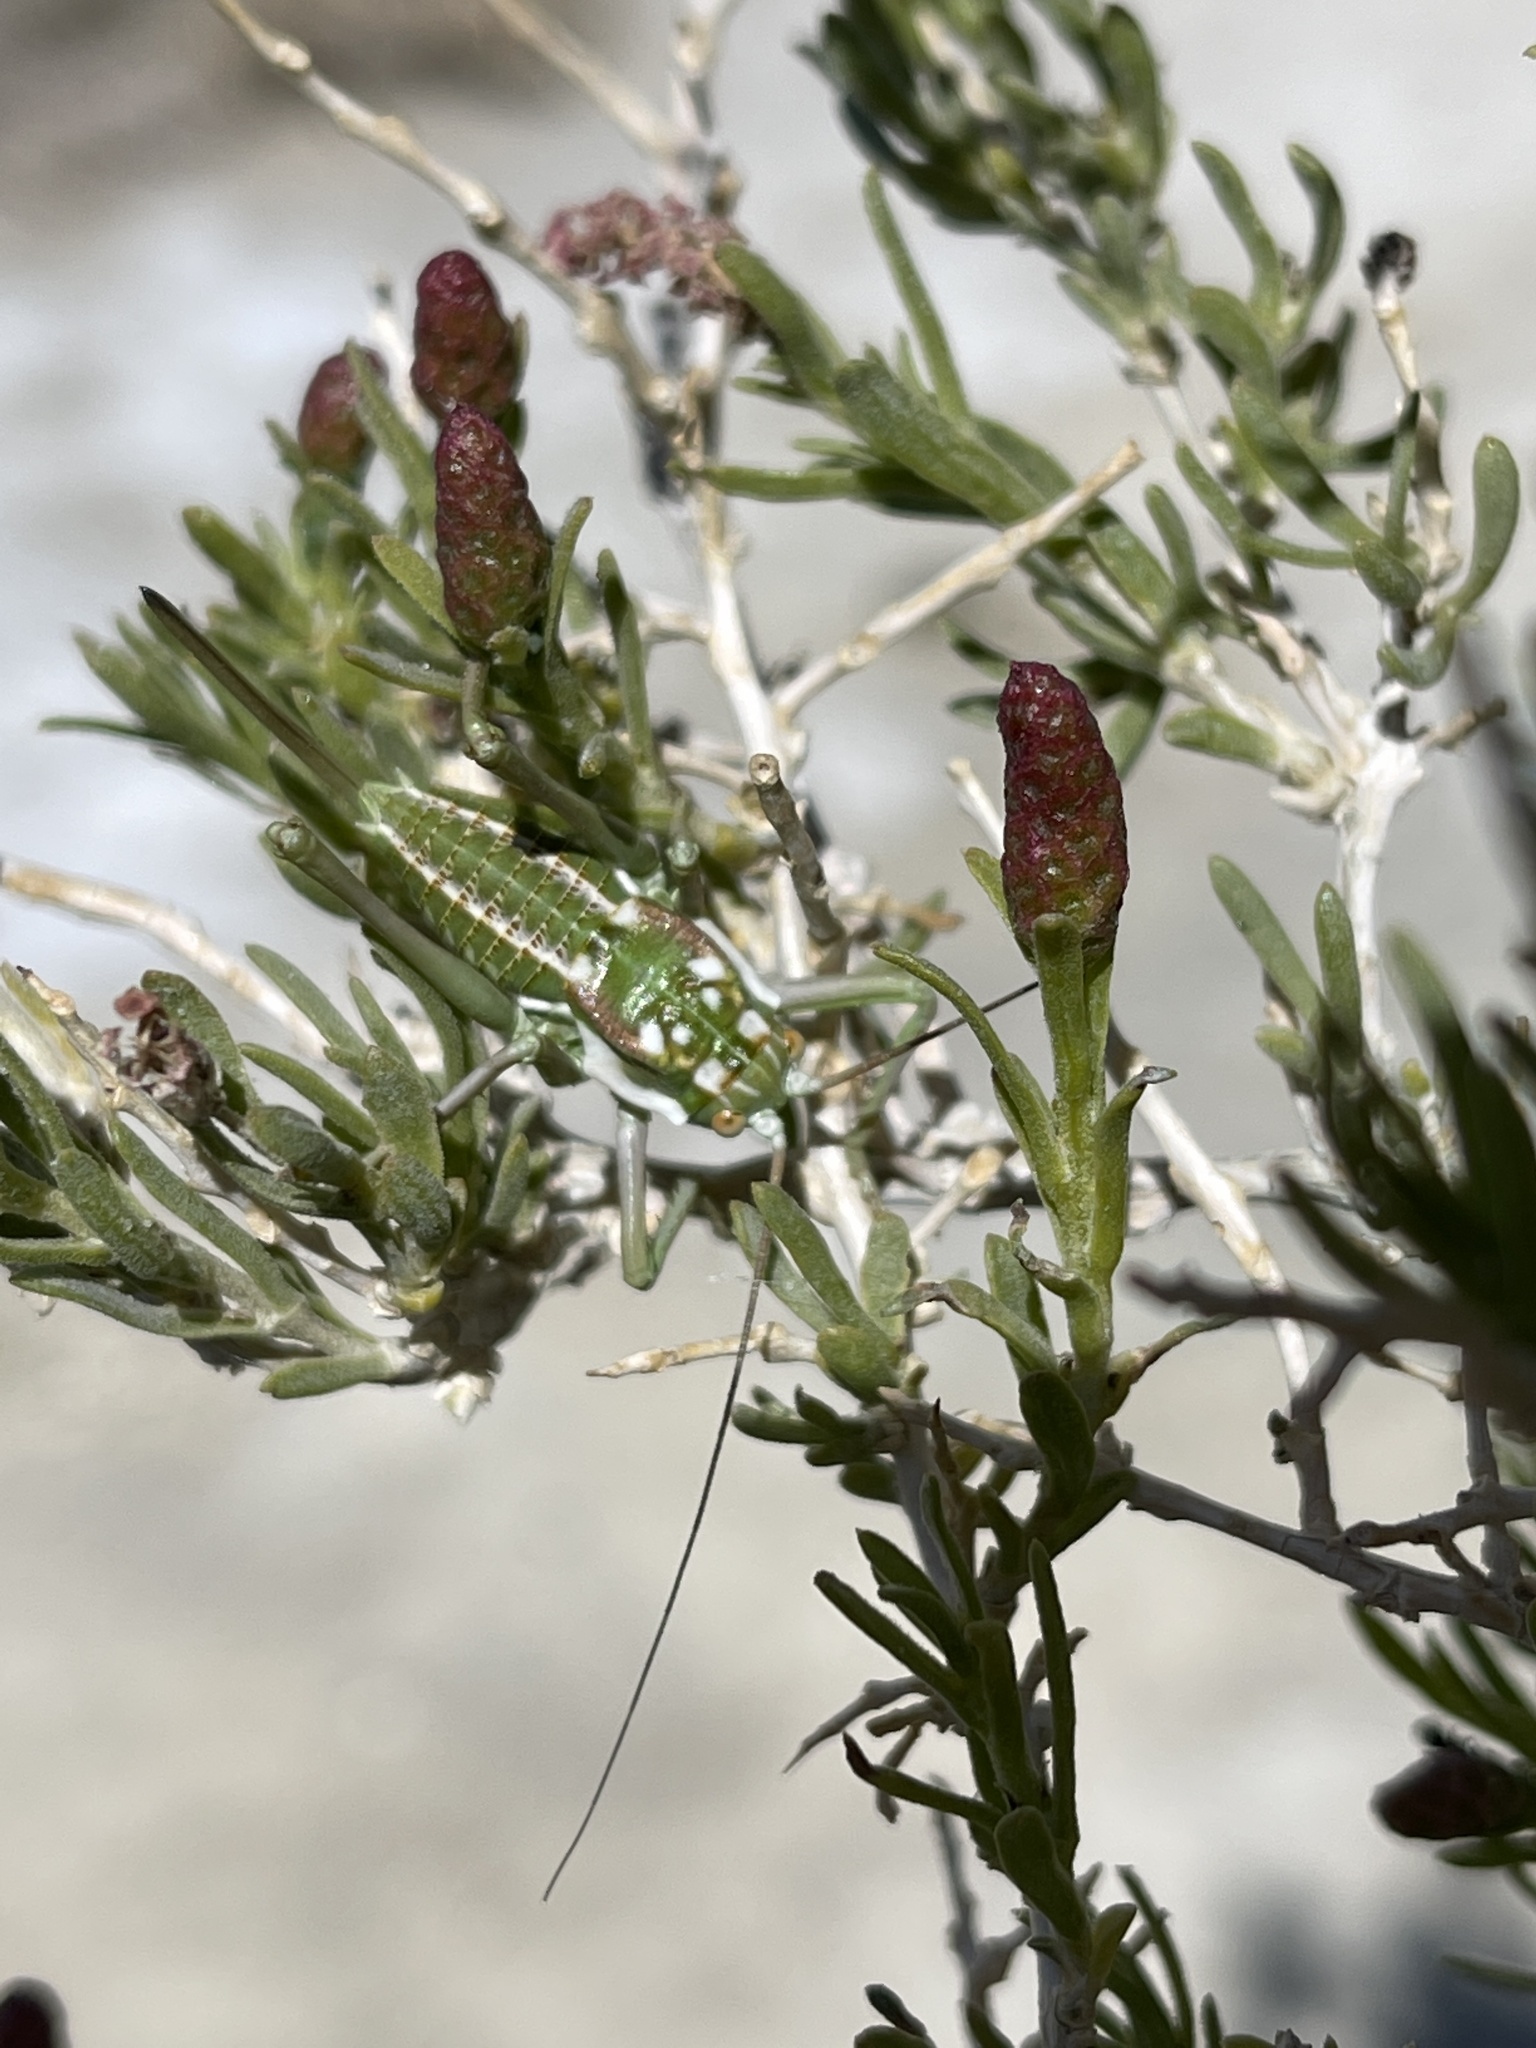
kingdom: Animalia
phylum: Arthropoda
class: Insecta
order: Orthoptera
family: Tettigoniidae
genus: Plagiostira
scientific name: Plagiostira gillettei
